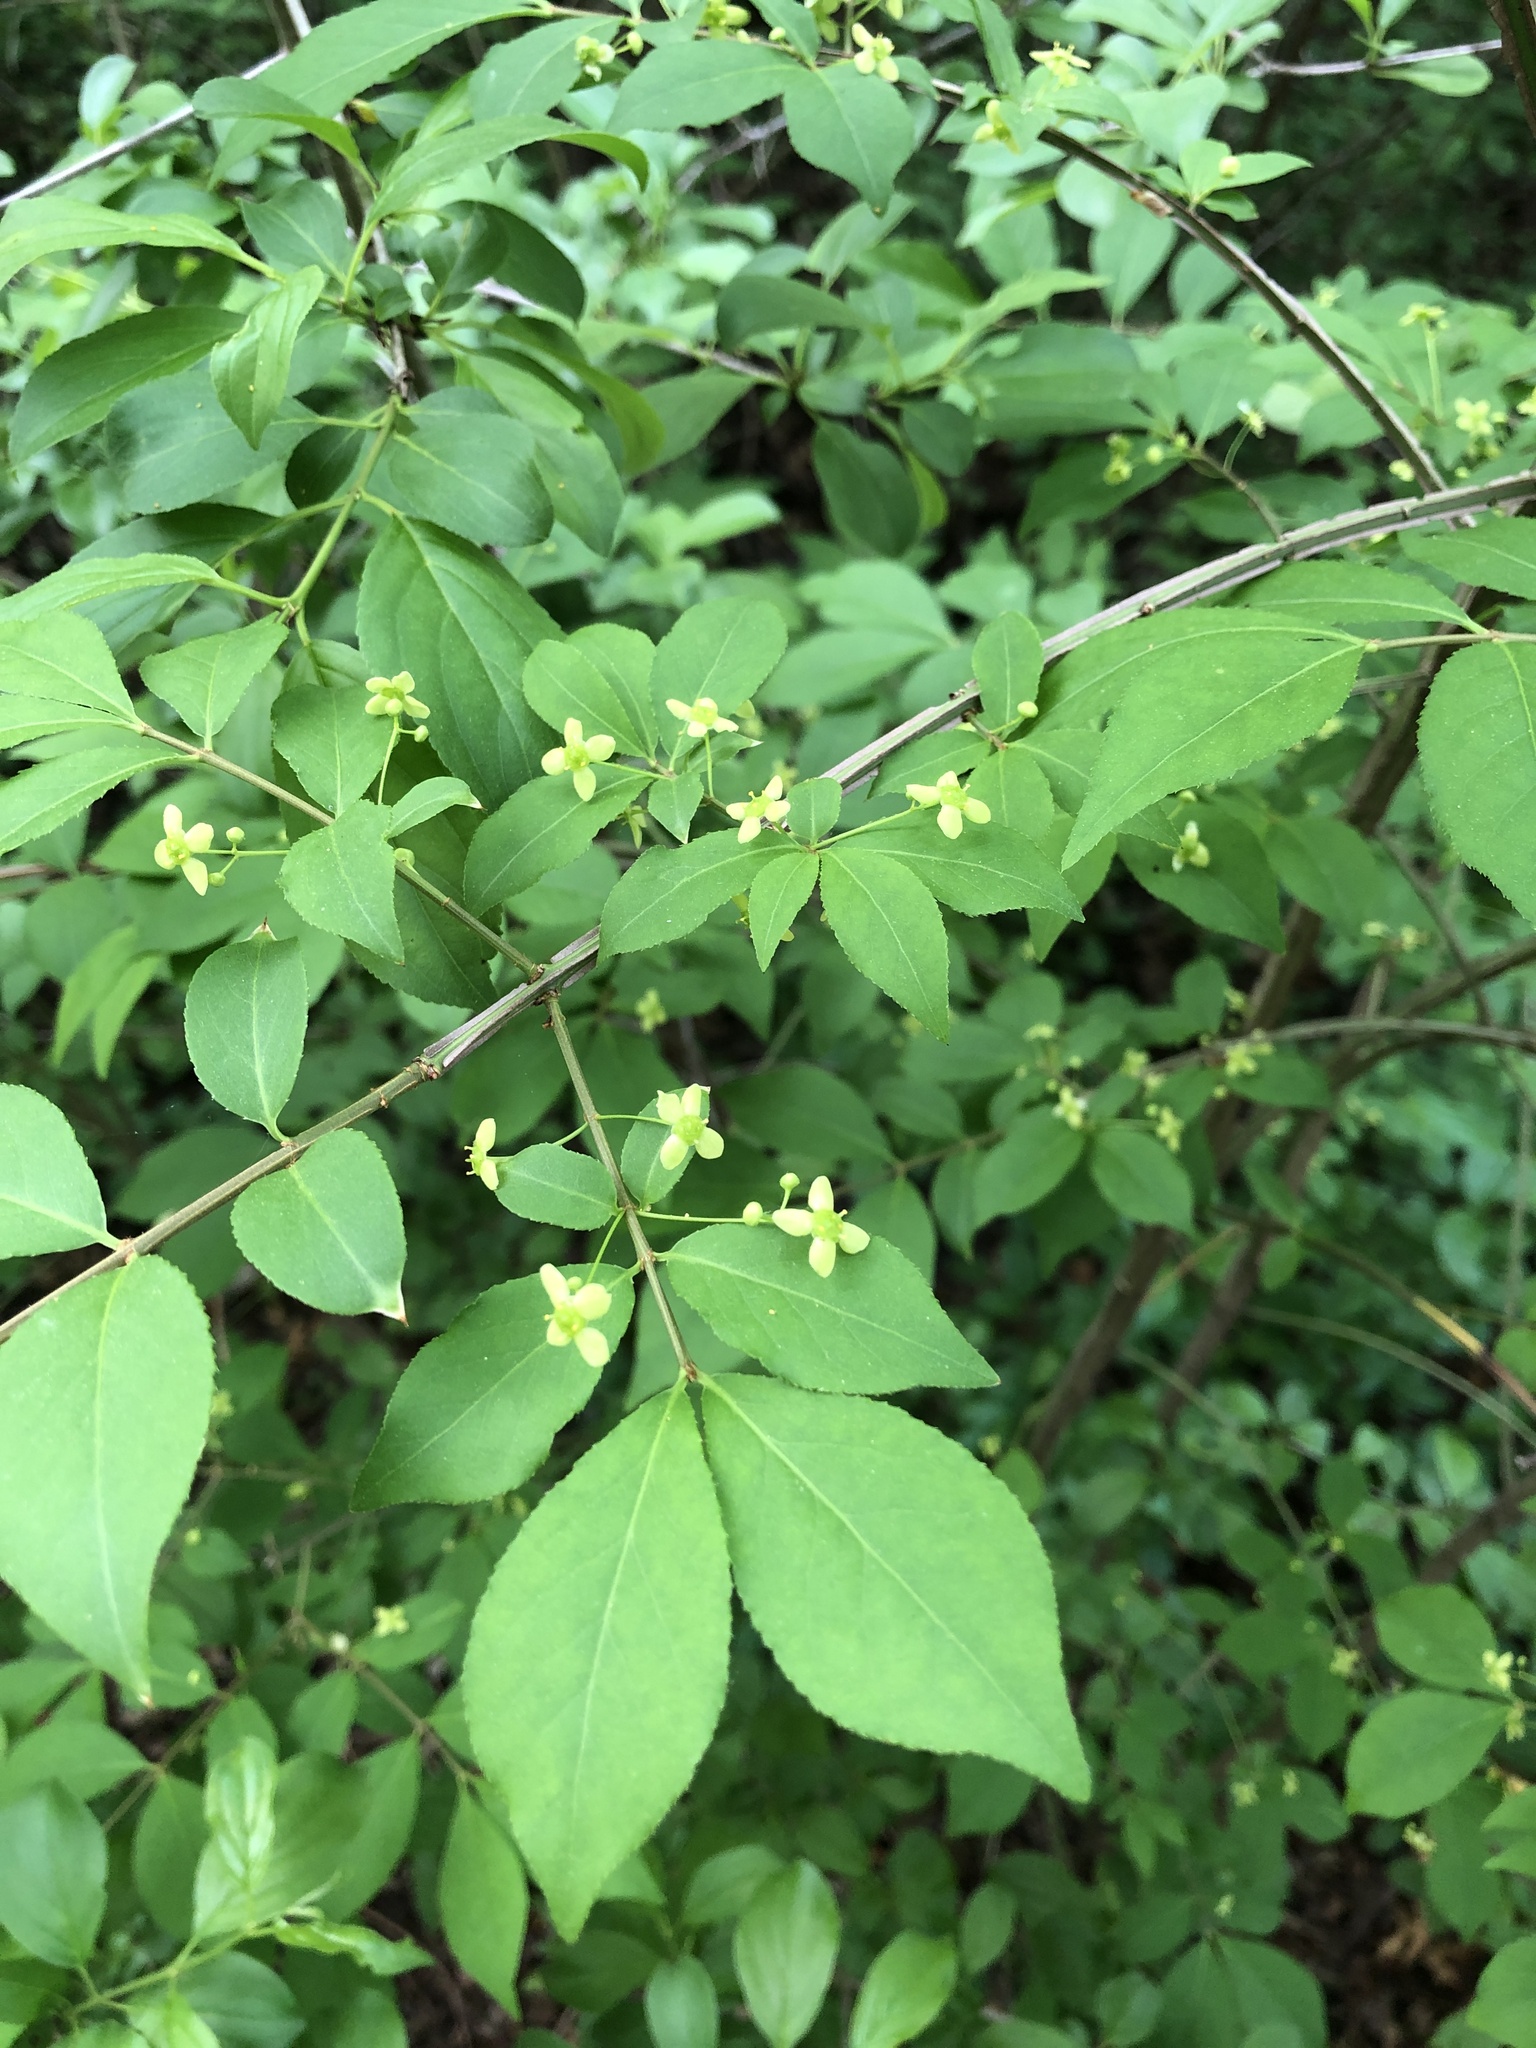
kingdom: Plantae
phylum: Tracheophyta
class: Magnoliopsida
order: Celastrales
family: Celastraceae
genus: Euonymus
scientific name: Euonymus alatus
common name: Winged euonymus
